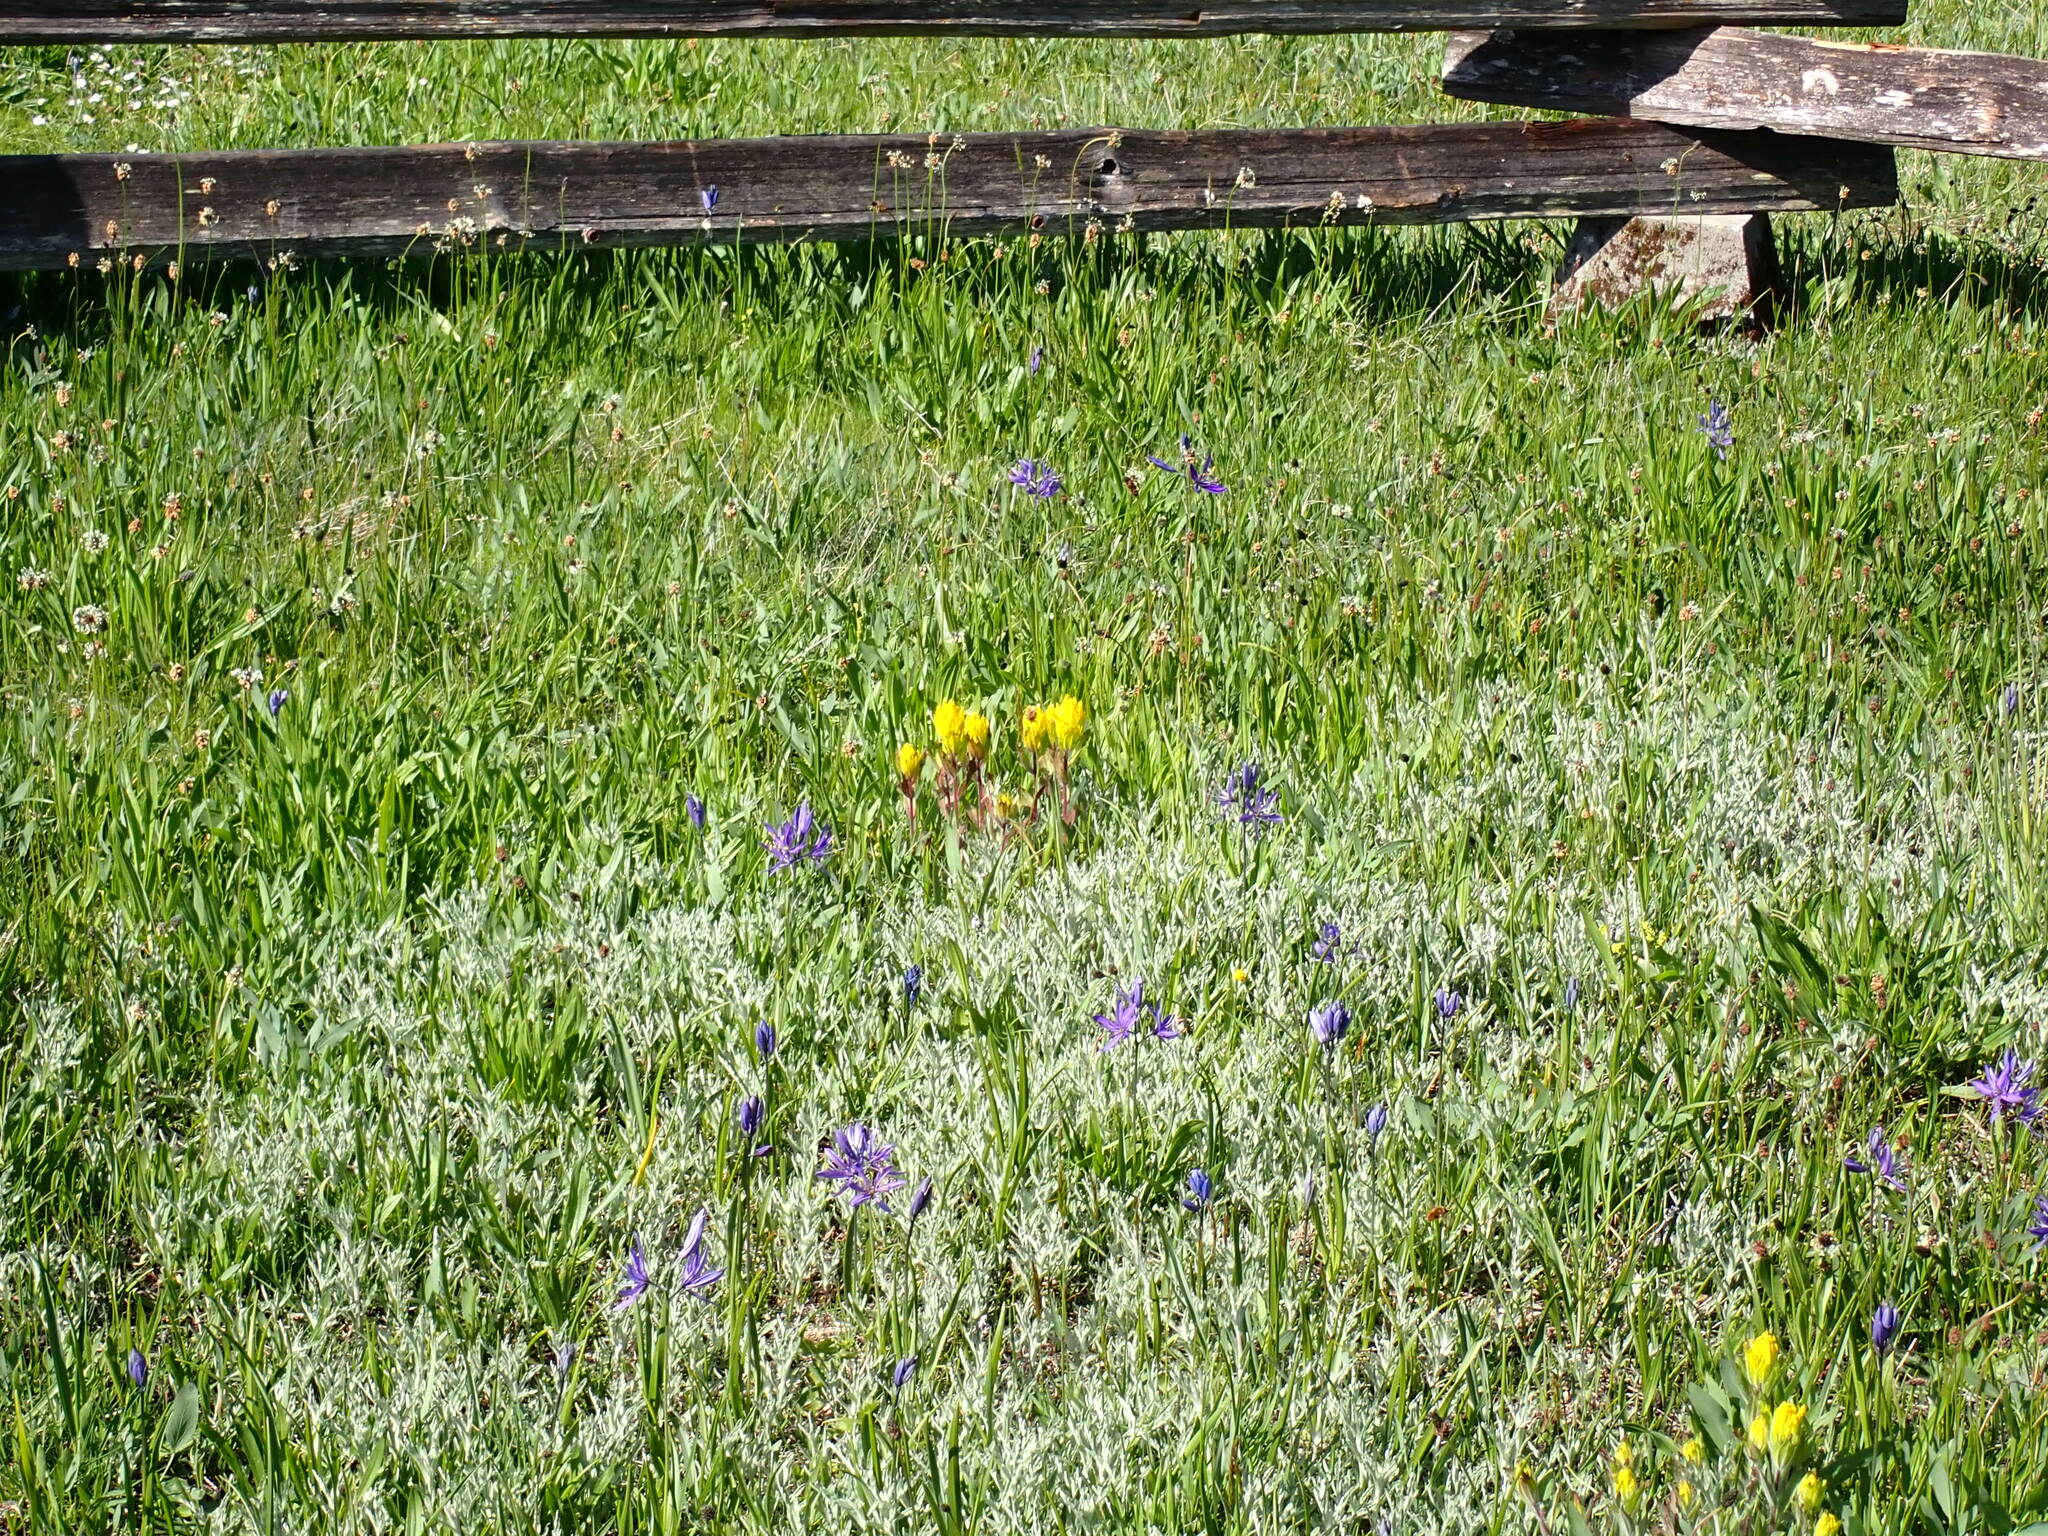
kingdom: Plantae
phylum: Tracheophyta
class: Magnoliopsida
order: Lamiales
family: Orobanchaceae
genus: Castilleja
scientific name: Castilleja levisecta
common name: Golden paintbrush
